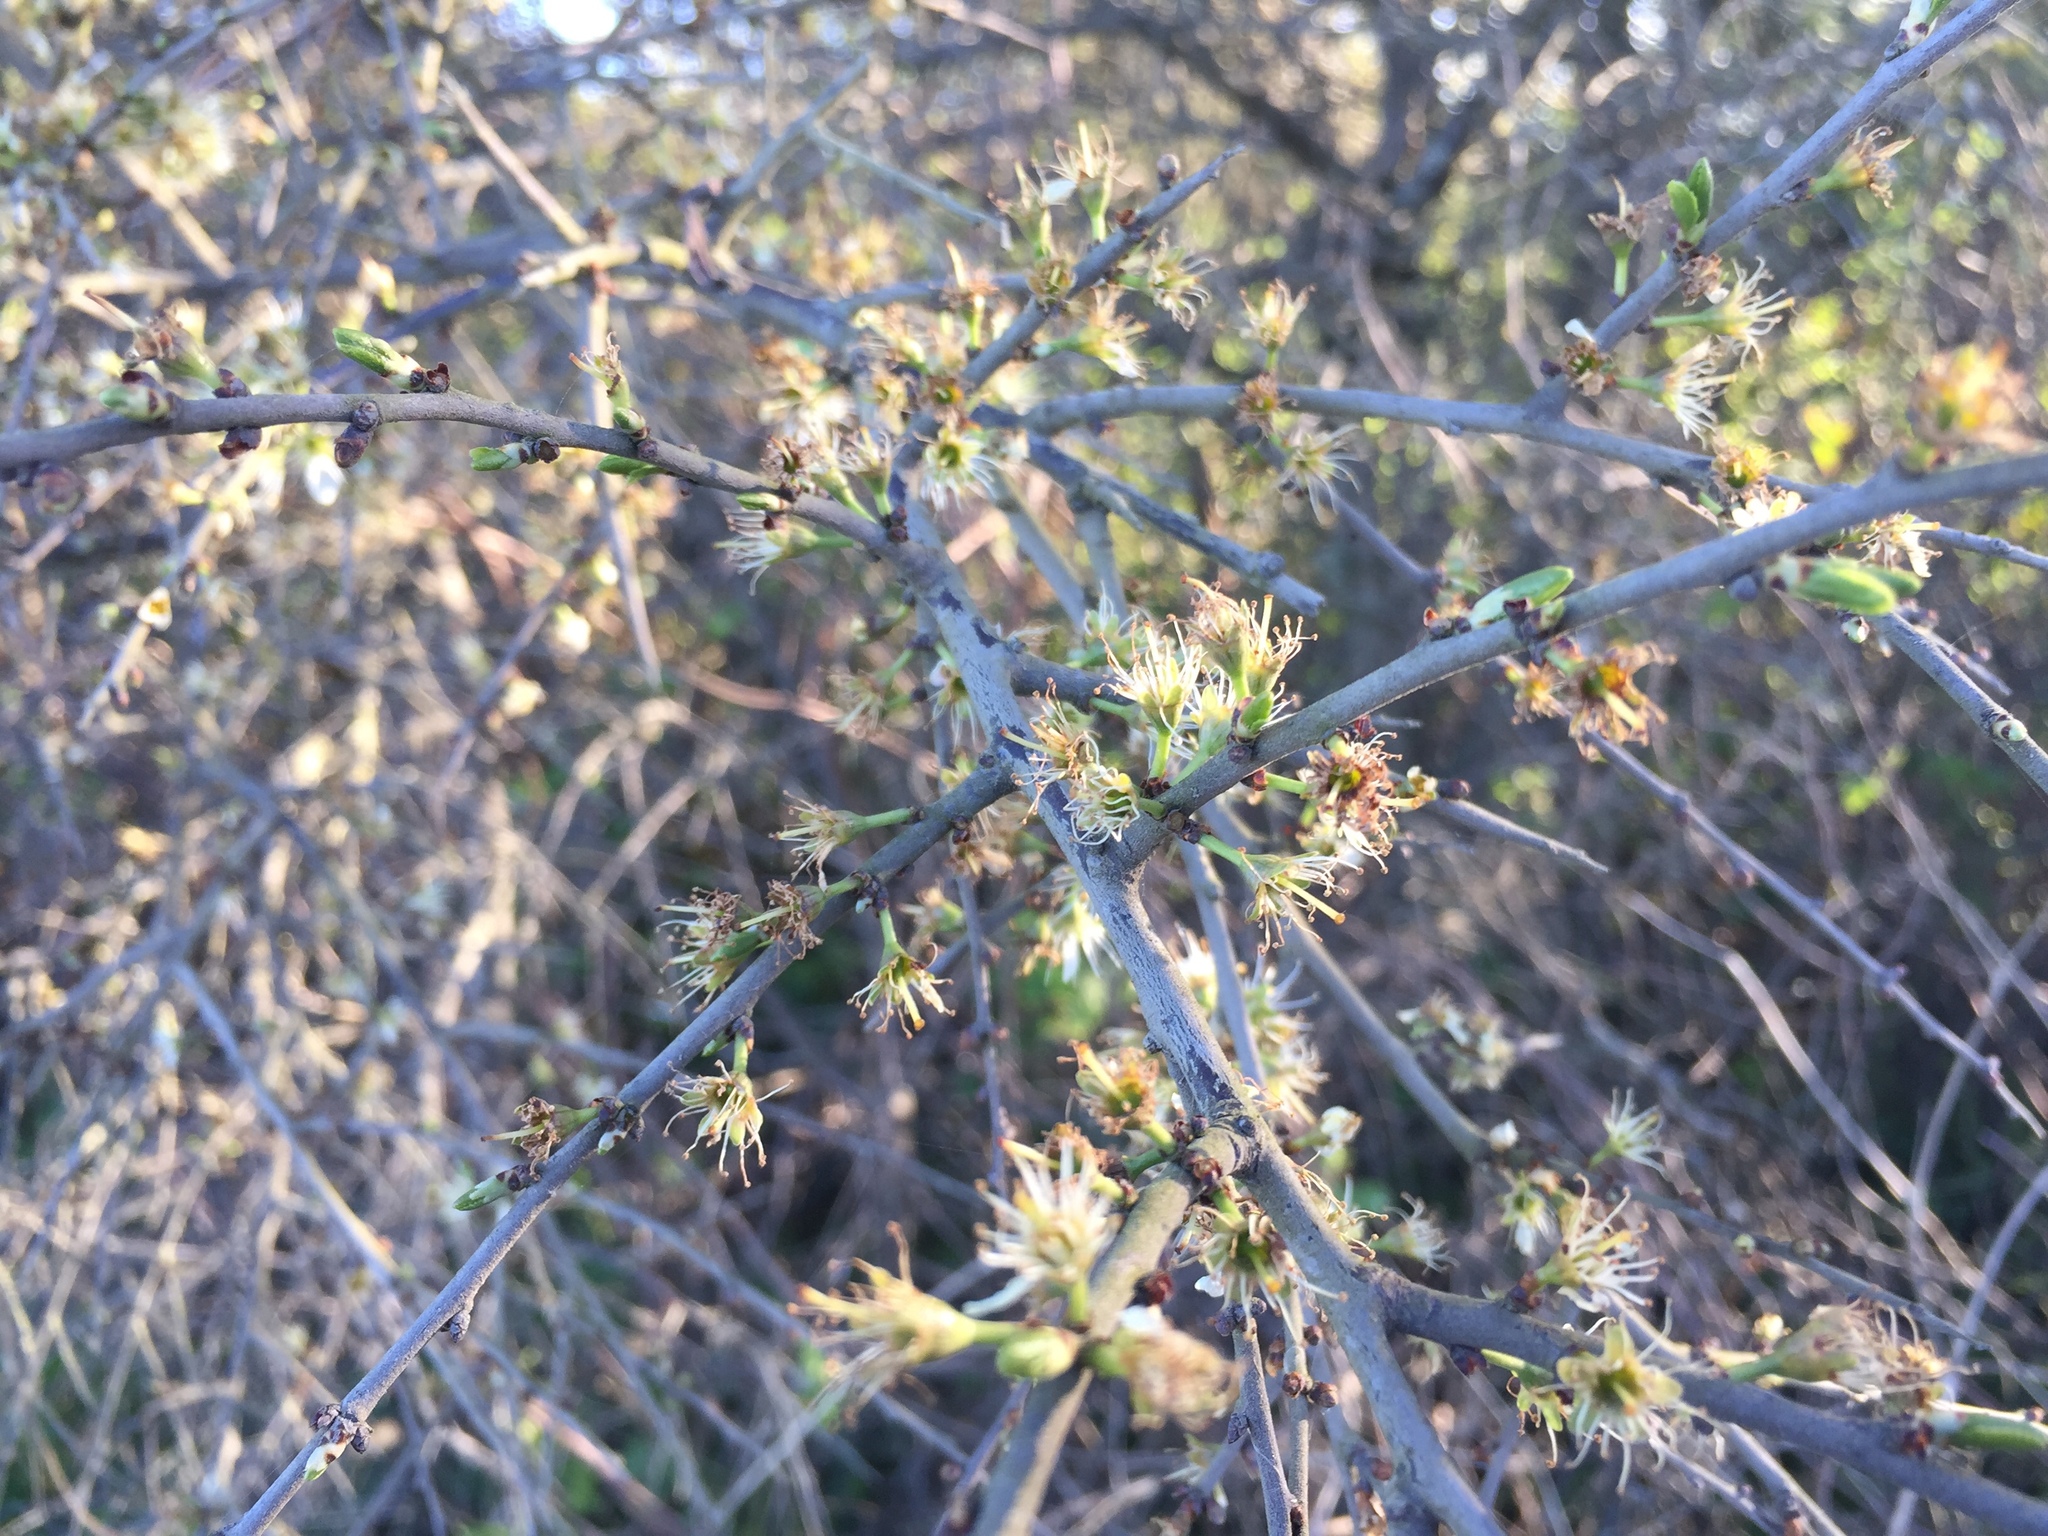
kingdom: Plantae
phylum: Tracheophyta
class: Magnoliopsida
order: Rosales
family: Rosaceae
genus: Prunus
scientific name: Prunus spinosa
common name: Blackthorn
